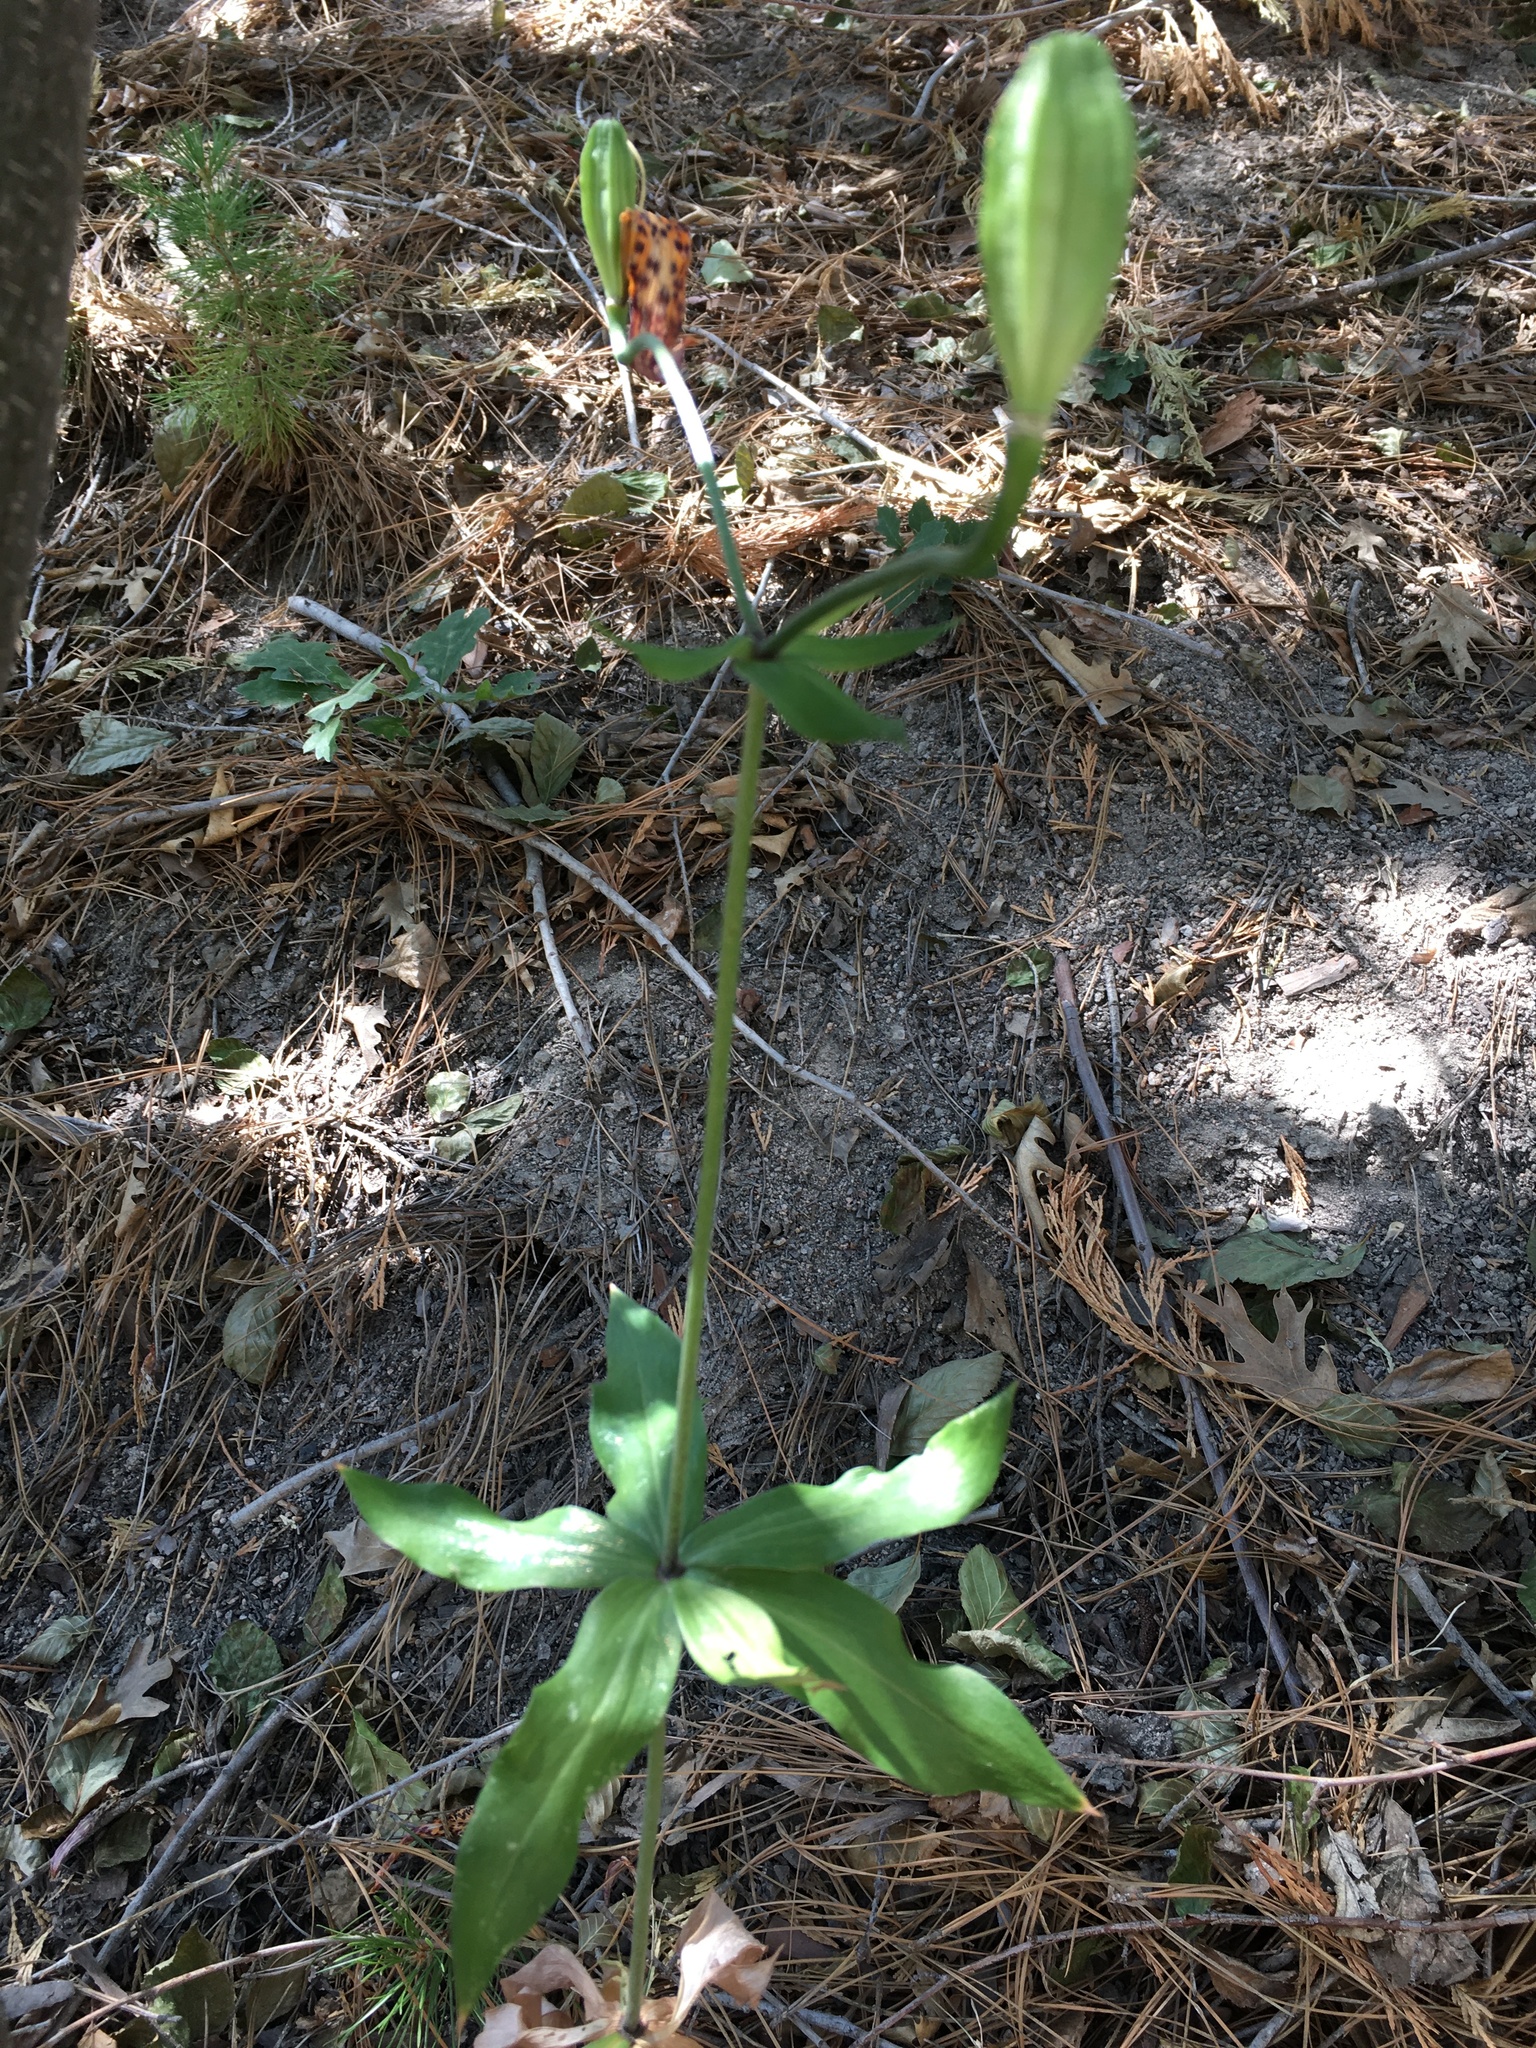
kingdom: Plantae
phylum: Tracheophyta
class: Liliopsida
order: Liliales
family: Liliaceae
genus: Lilium
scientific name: Lilium humboldtii
